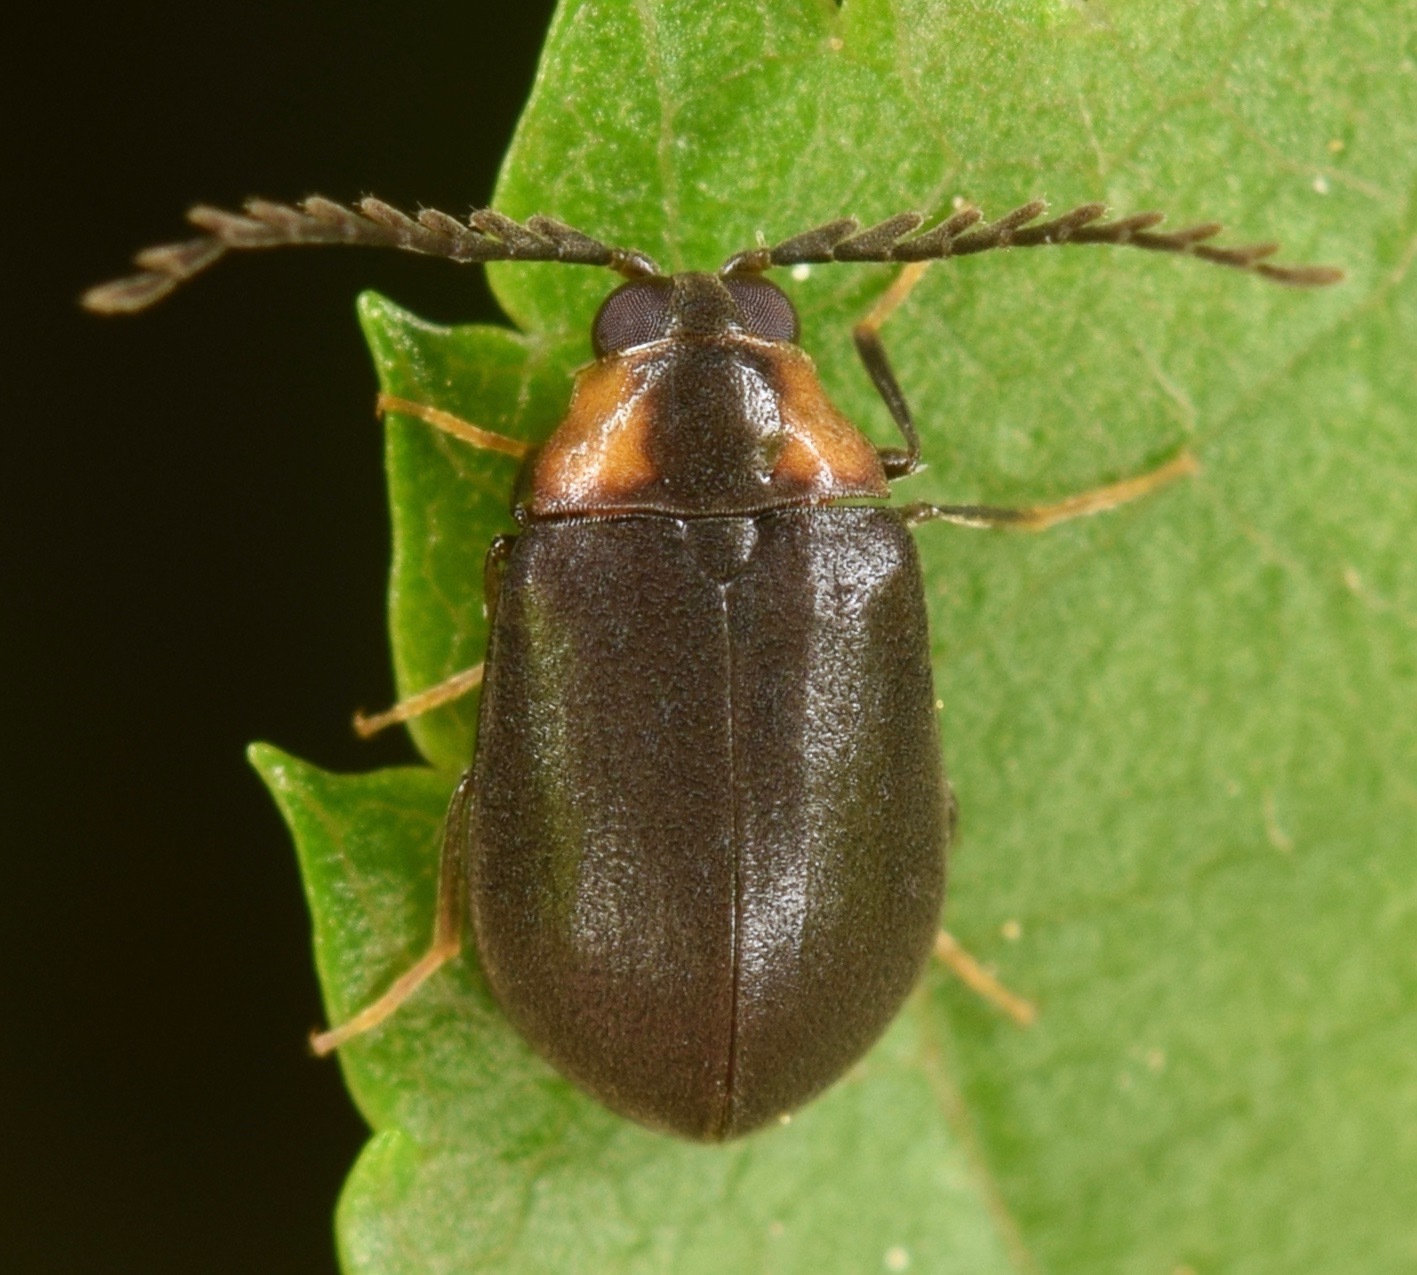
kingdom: Animalia
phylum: Arthropoda
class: Insecta
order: Coleoptera
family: Psephenidae
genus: Ectopria
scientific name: Ectopria nervosa
